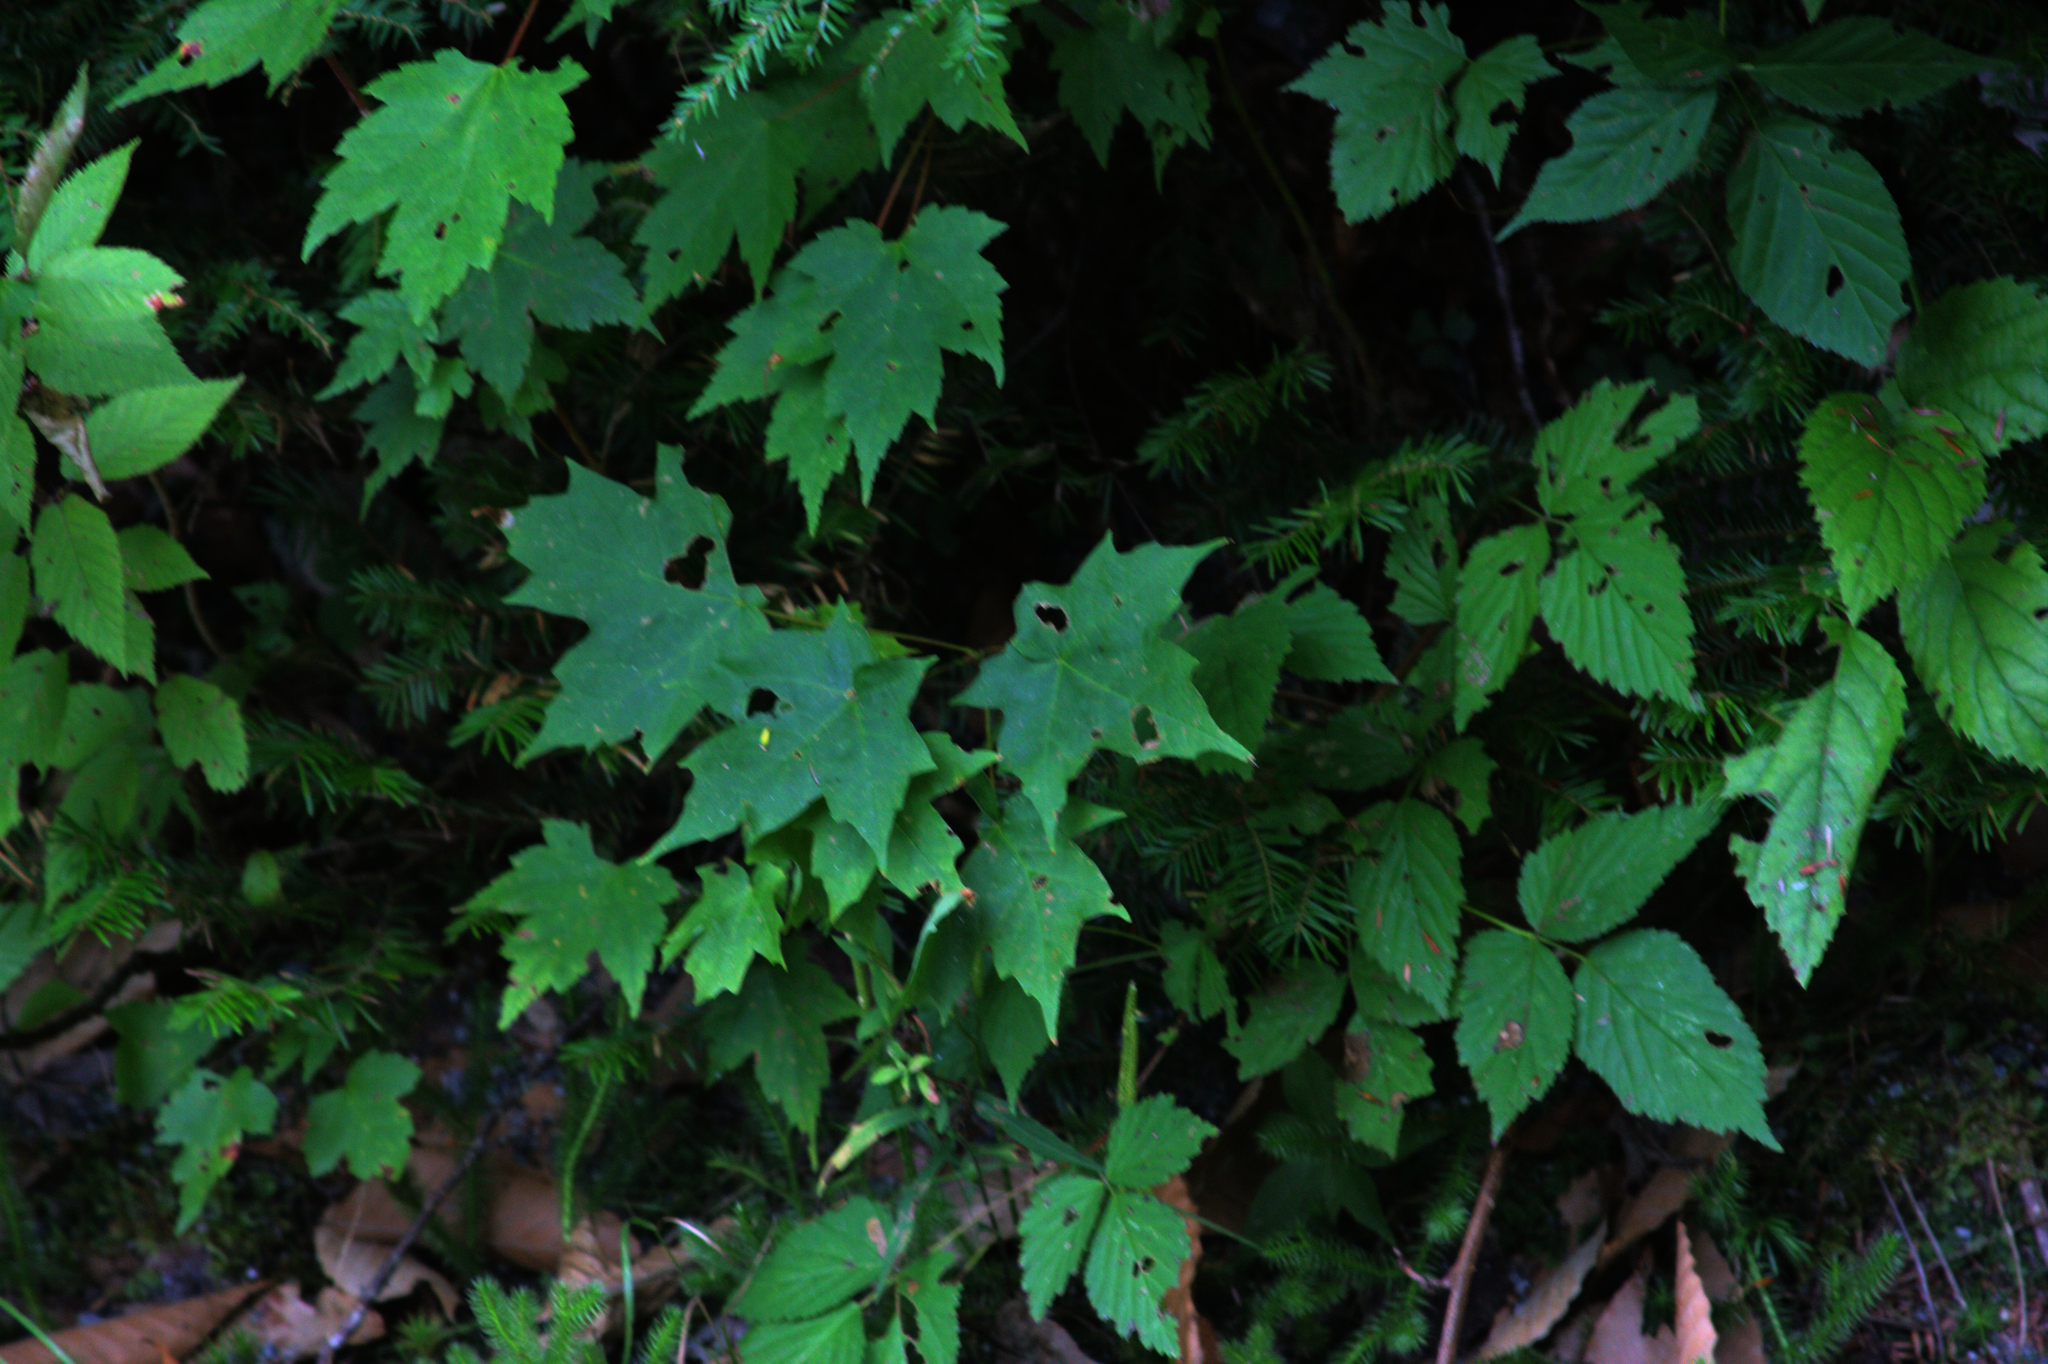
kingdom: Plantae
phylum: Tracheophyta
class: Magnoliopsida
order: Sapindales
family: Sapindaceae
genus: Acer
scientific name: Acer rubrum
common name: Red maple
